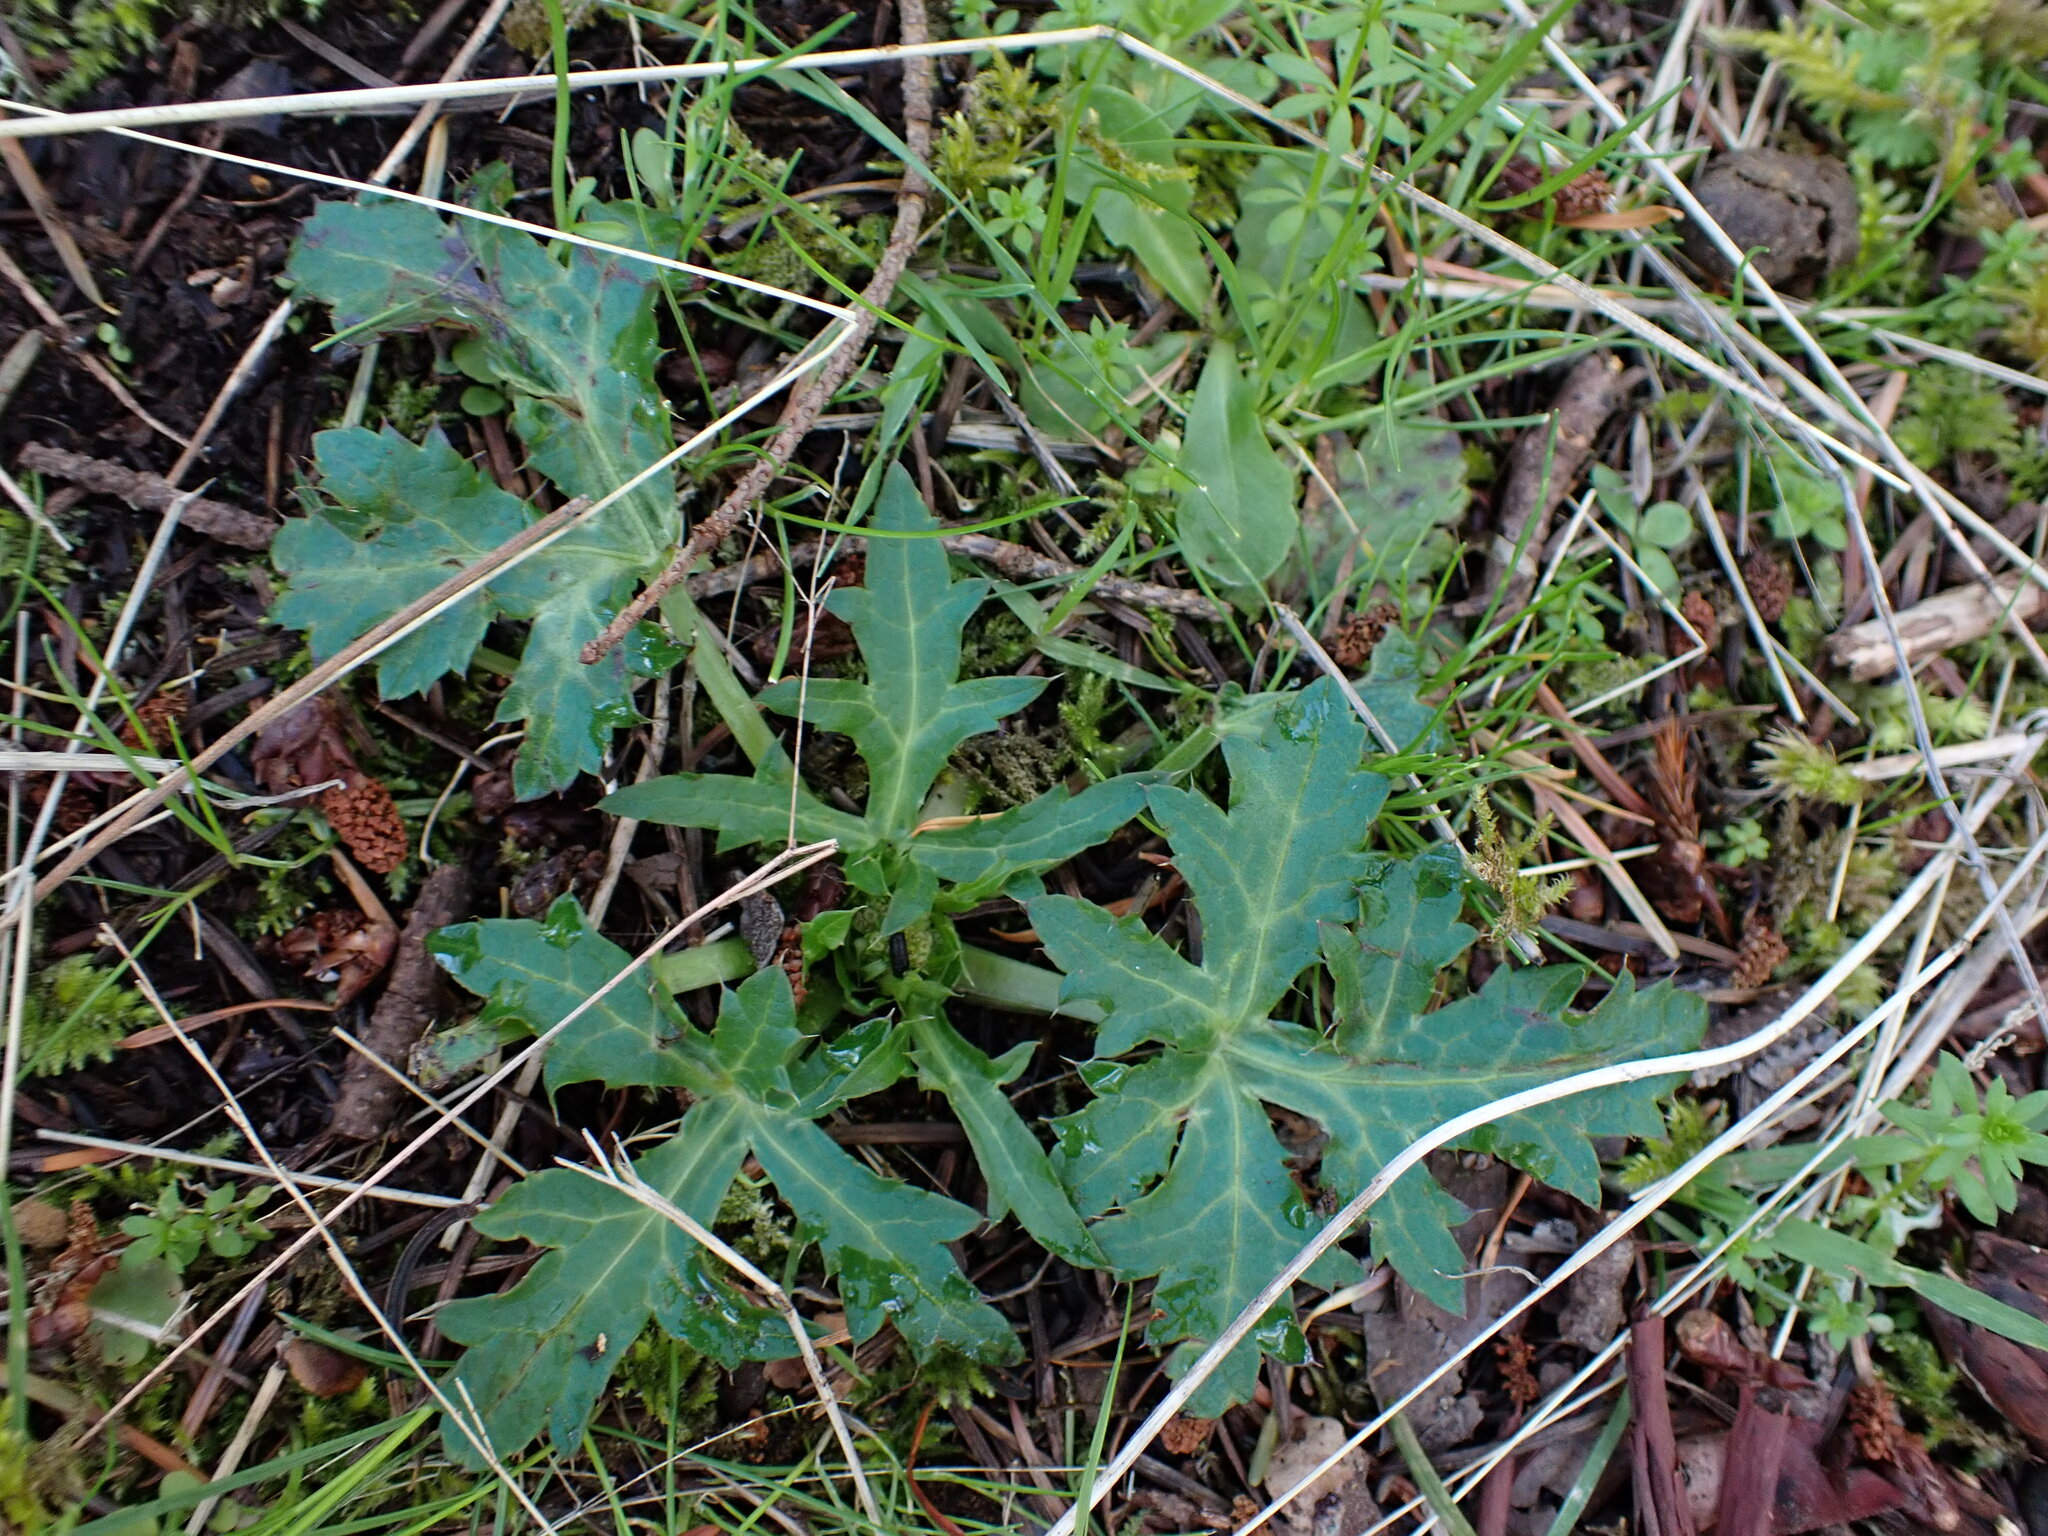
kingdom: Plantae
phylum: Tracheophyta
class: Magnoliopsida
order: Apiales
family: Apiaceae
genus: Sanicula
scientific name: Sanicula crassicaulis
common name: Western snakeroot
